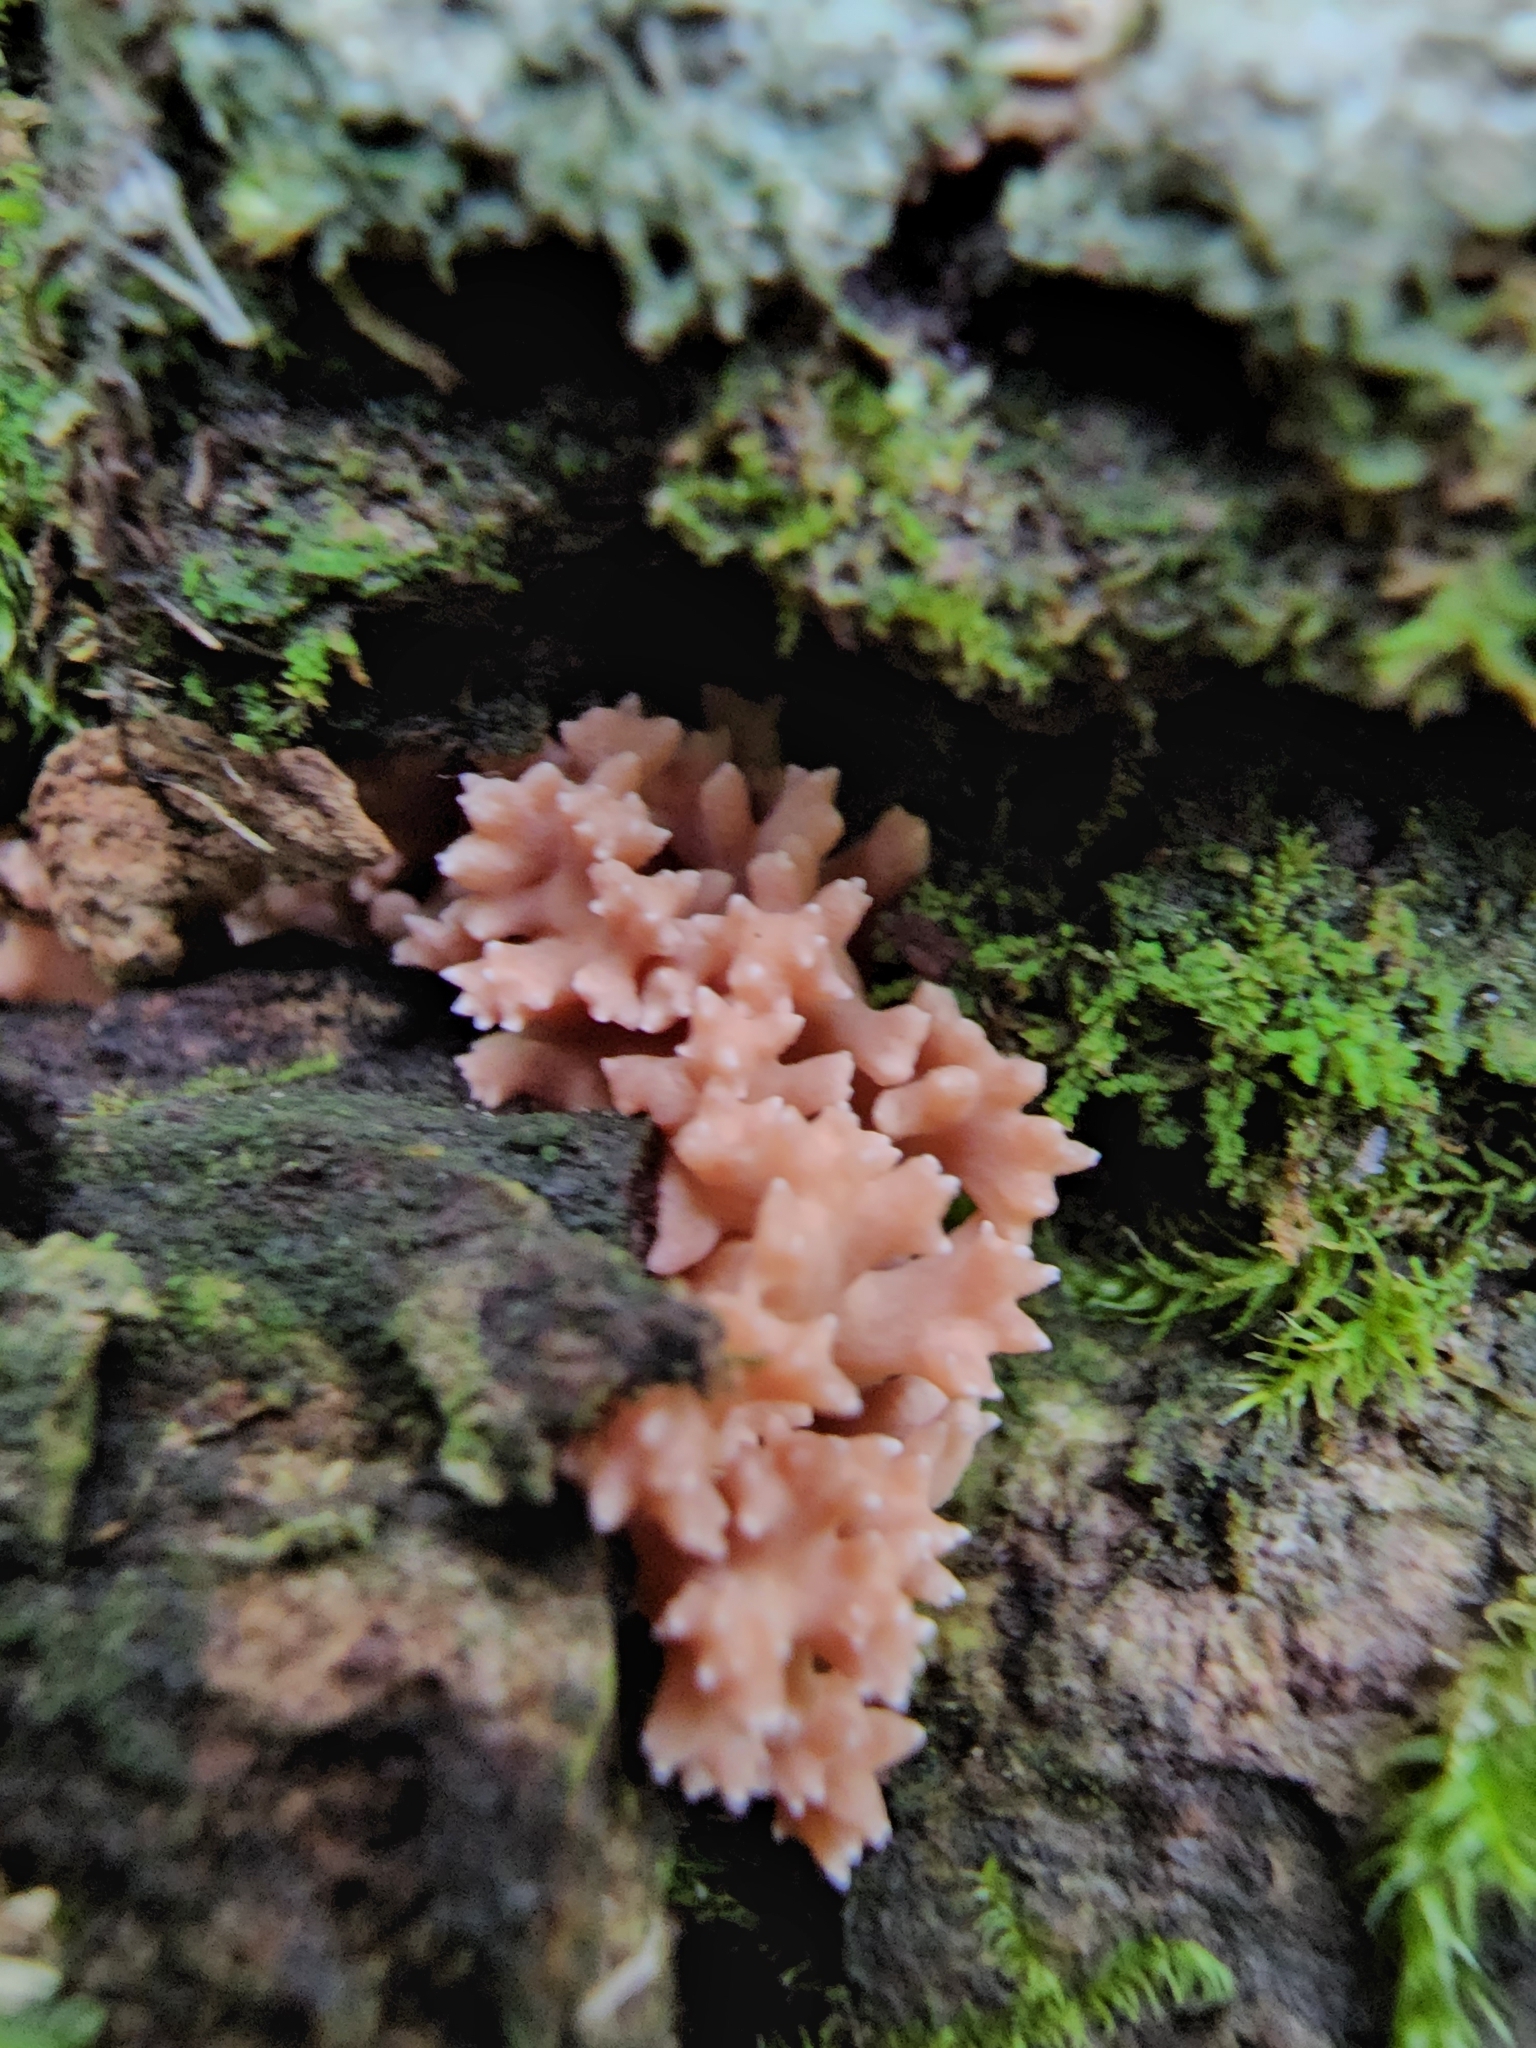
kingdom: Fungi
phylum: Basidiomycota
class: Agaricomycetes
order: Gomphales
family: Gomphaceae
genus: Ramaria
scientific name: Ramaria rubella
